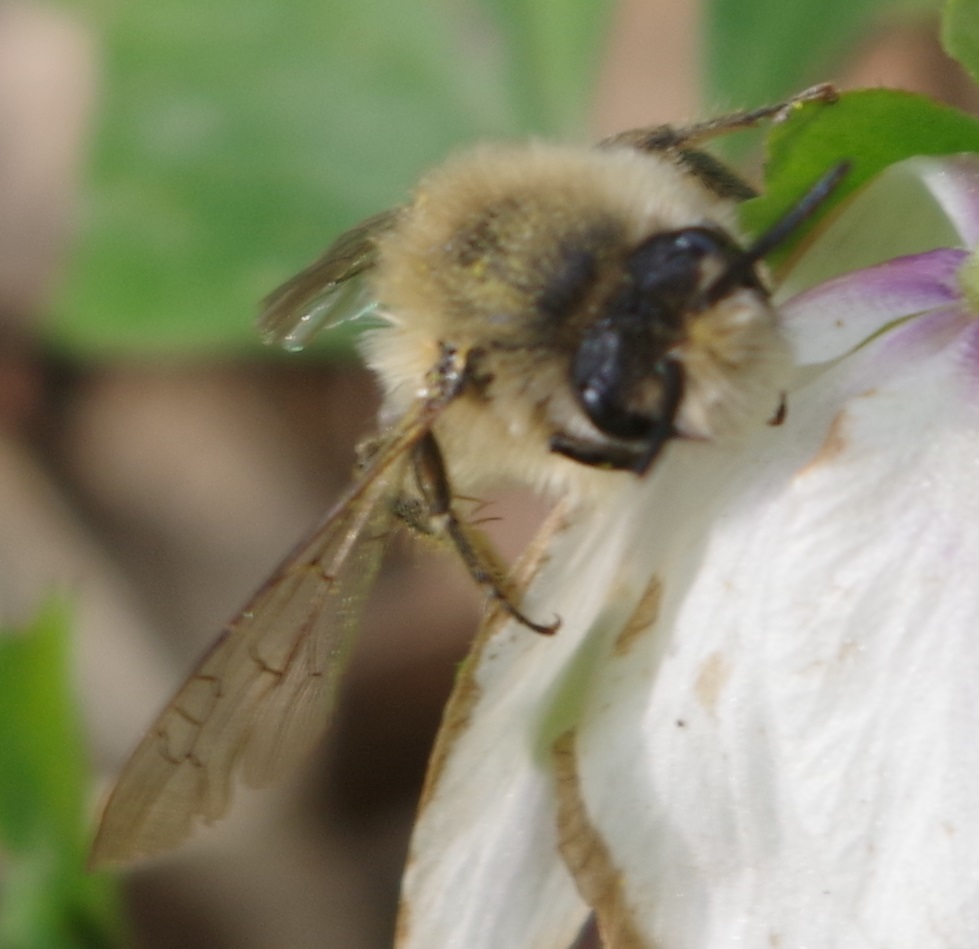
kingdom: Animalia
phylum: Arthropoda
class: Insecta
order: Hymenoptera
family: Colletidae
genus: Colletes
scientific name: Colletes cunicularius
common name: Early colletes
